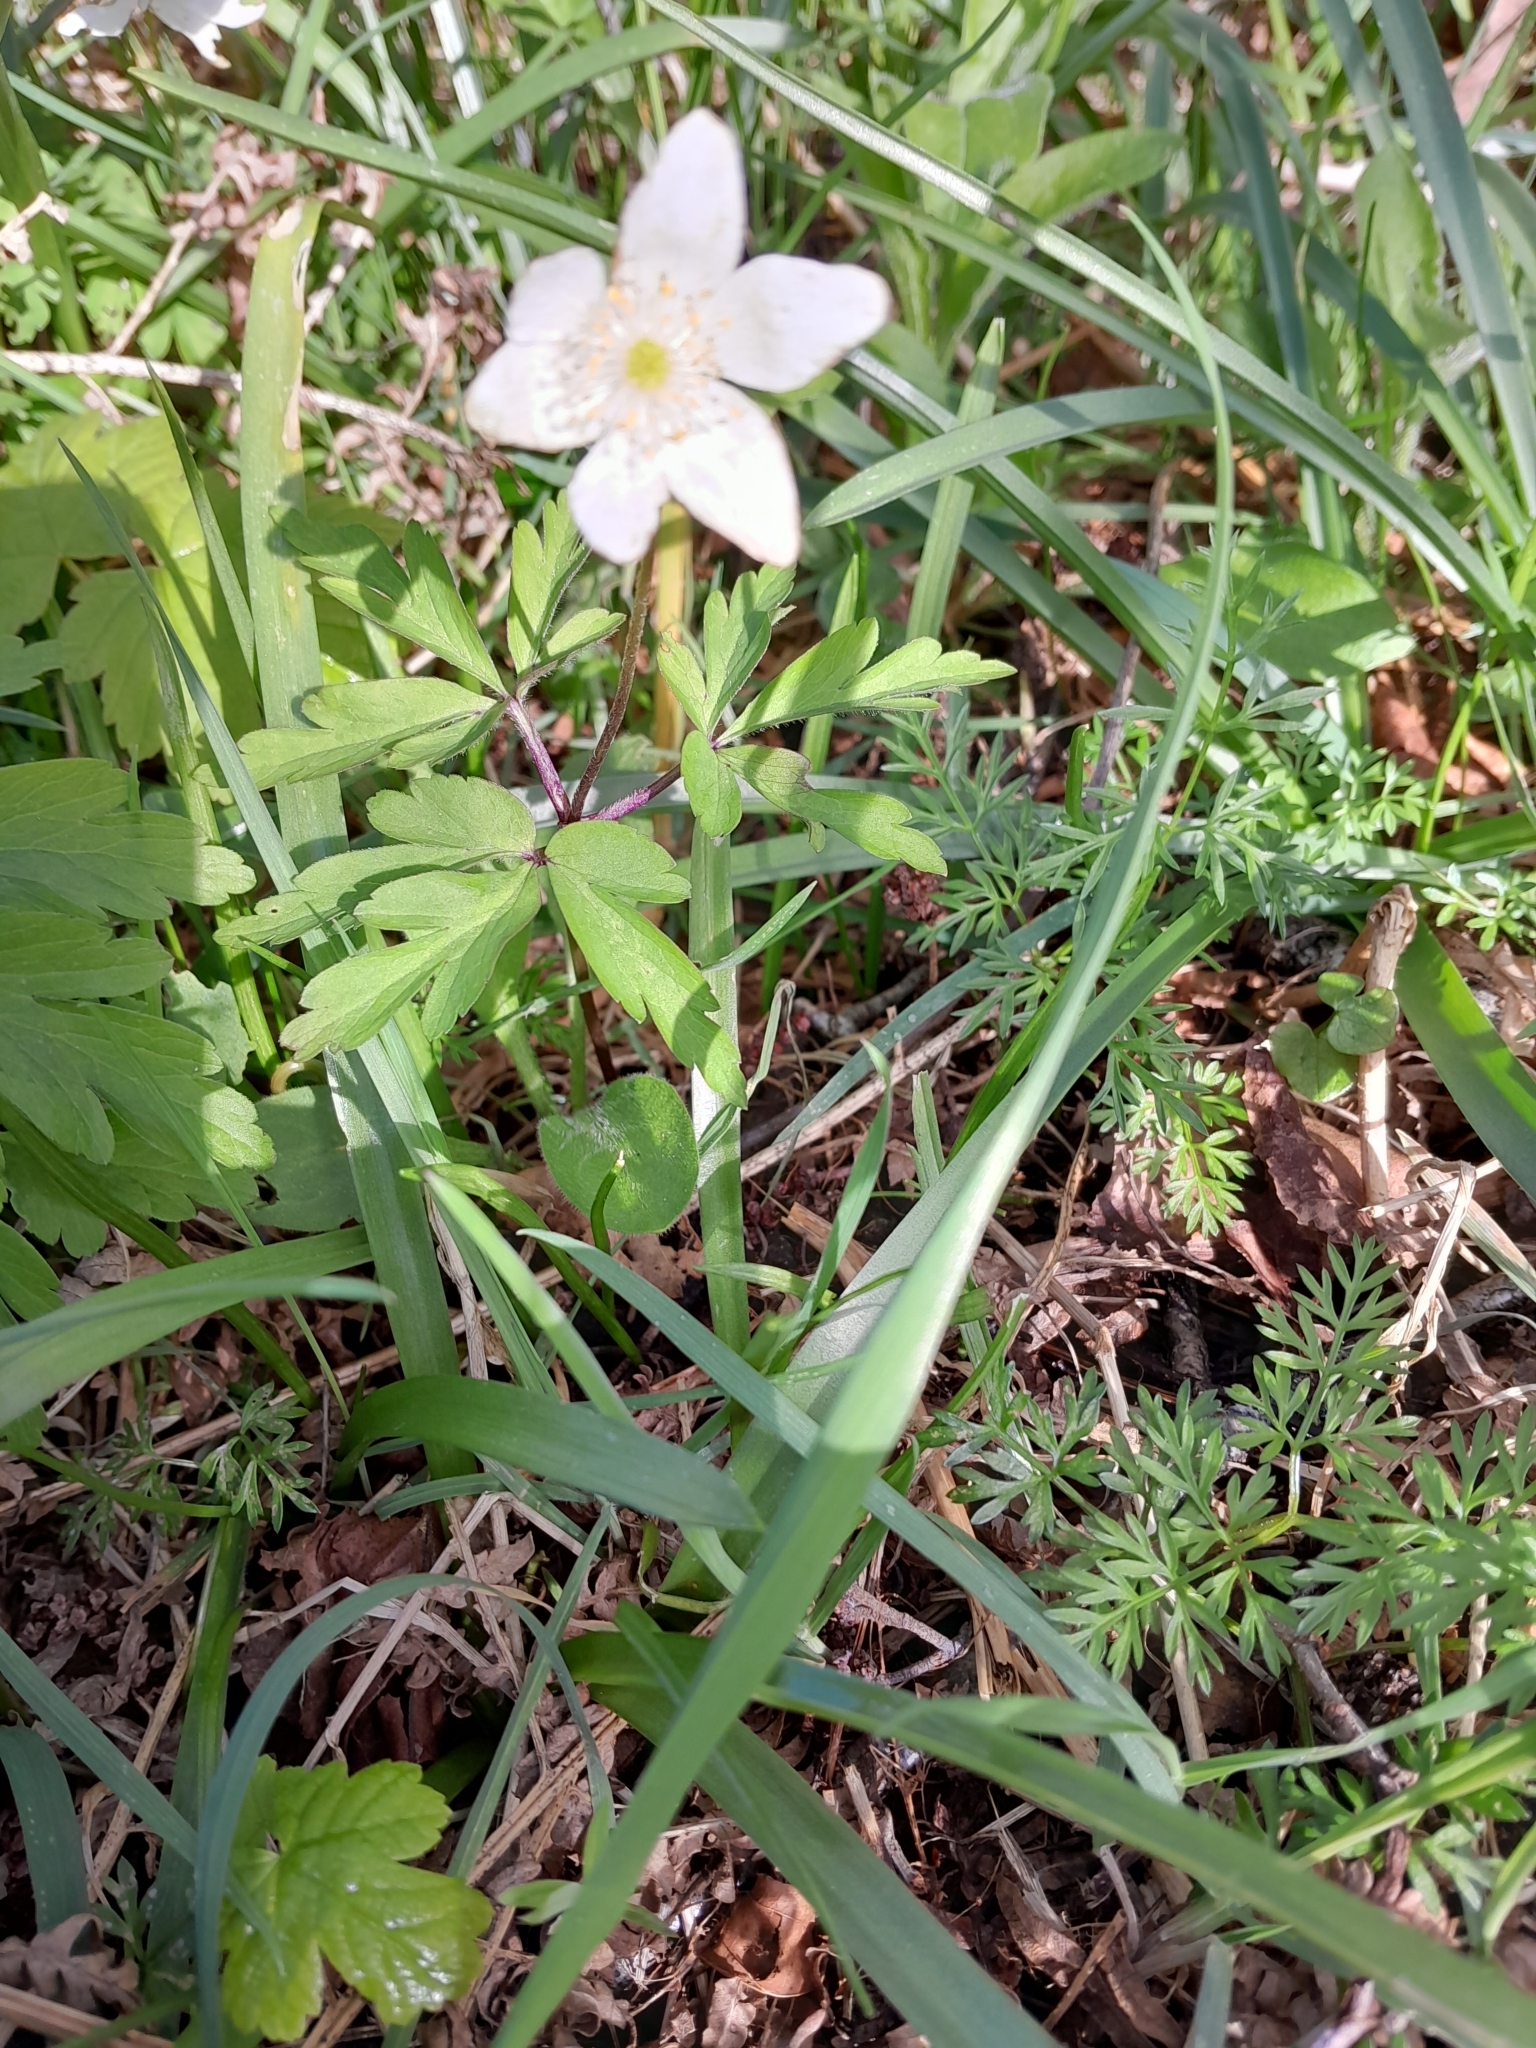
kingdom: Plantae
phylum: Tracheophyta
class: Magnoliopsida
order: Ranunculales
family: Ranunculaceae
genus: Anemone
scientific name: Anemone nemorosa
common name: Wood anemone
